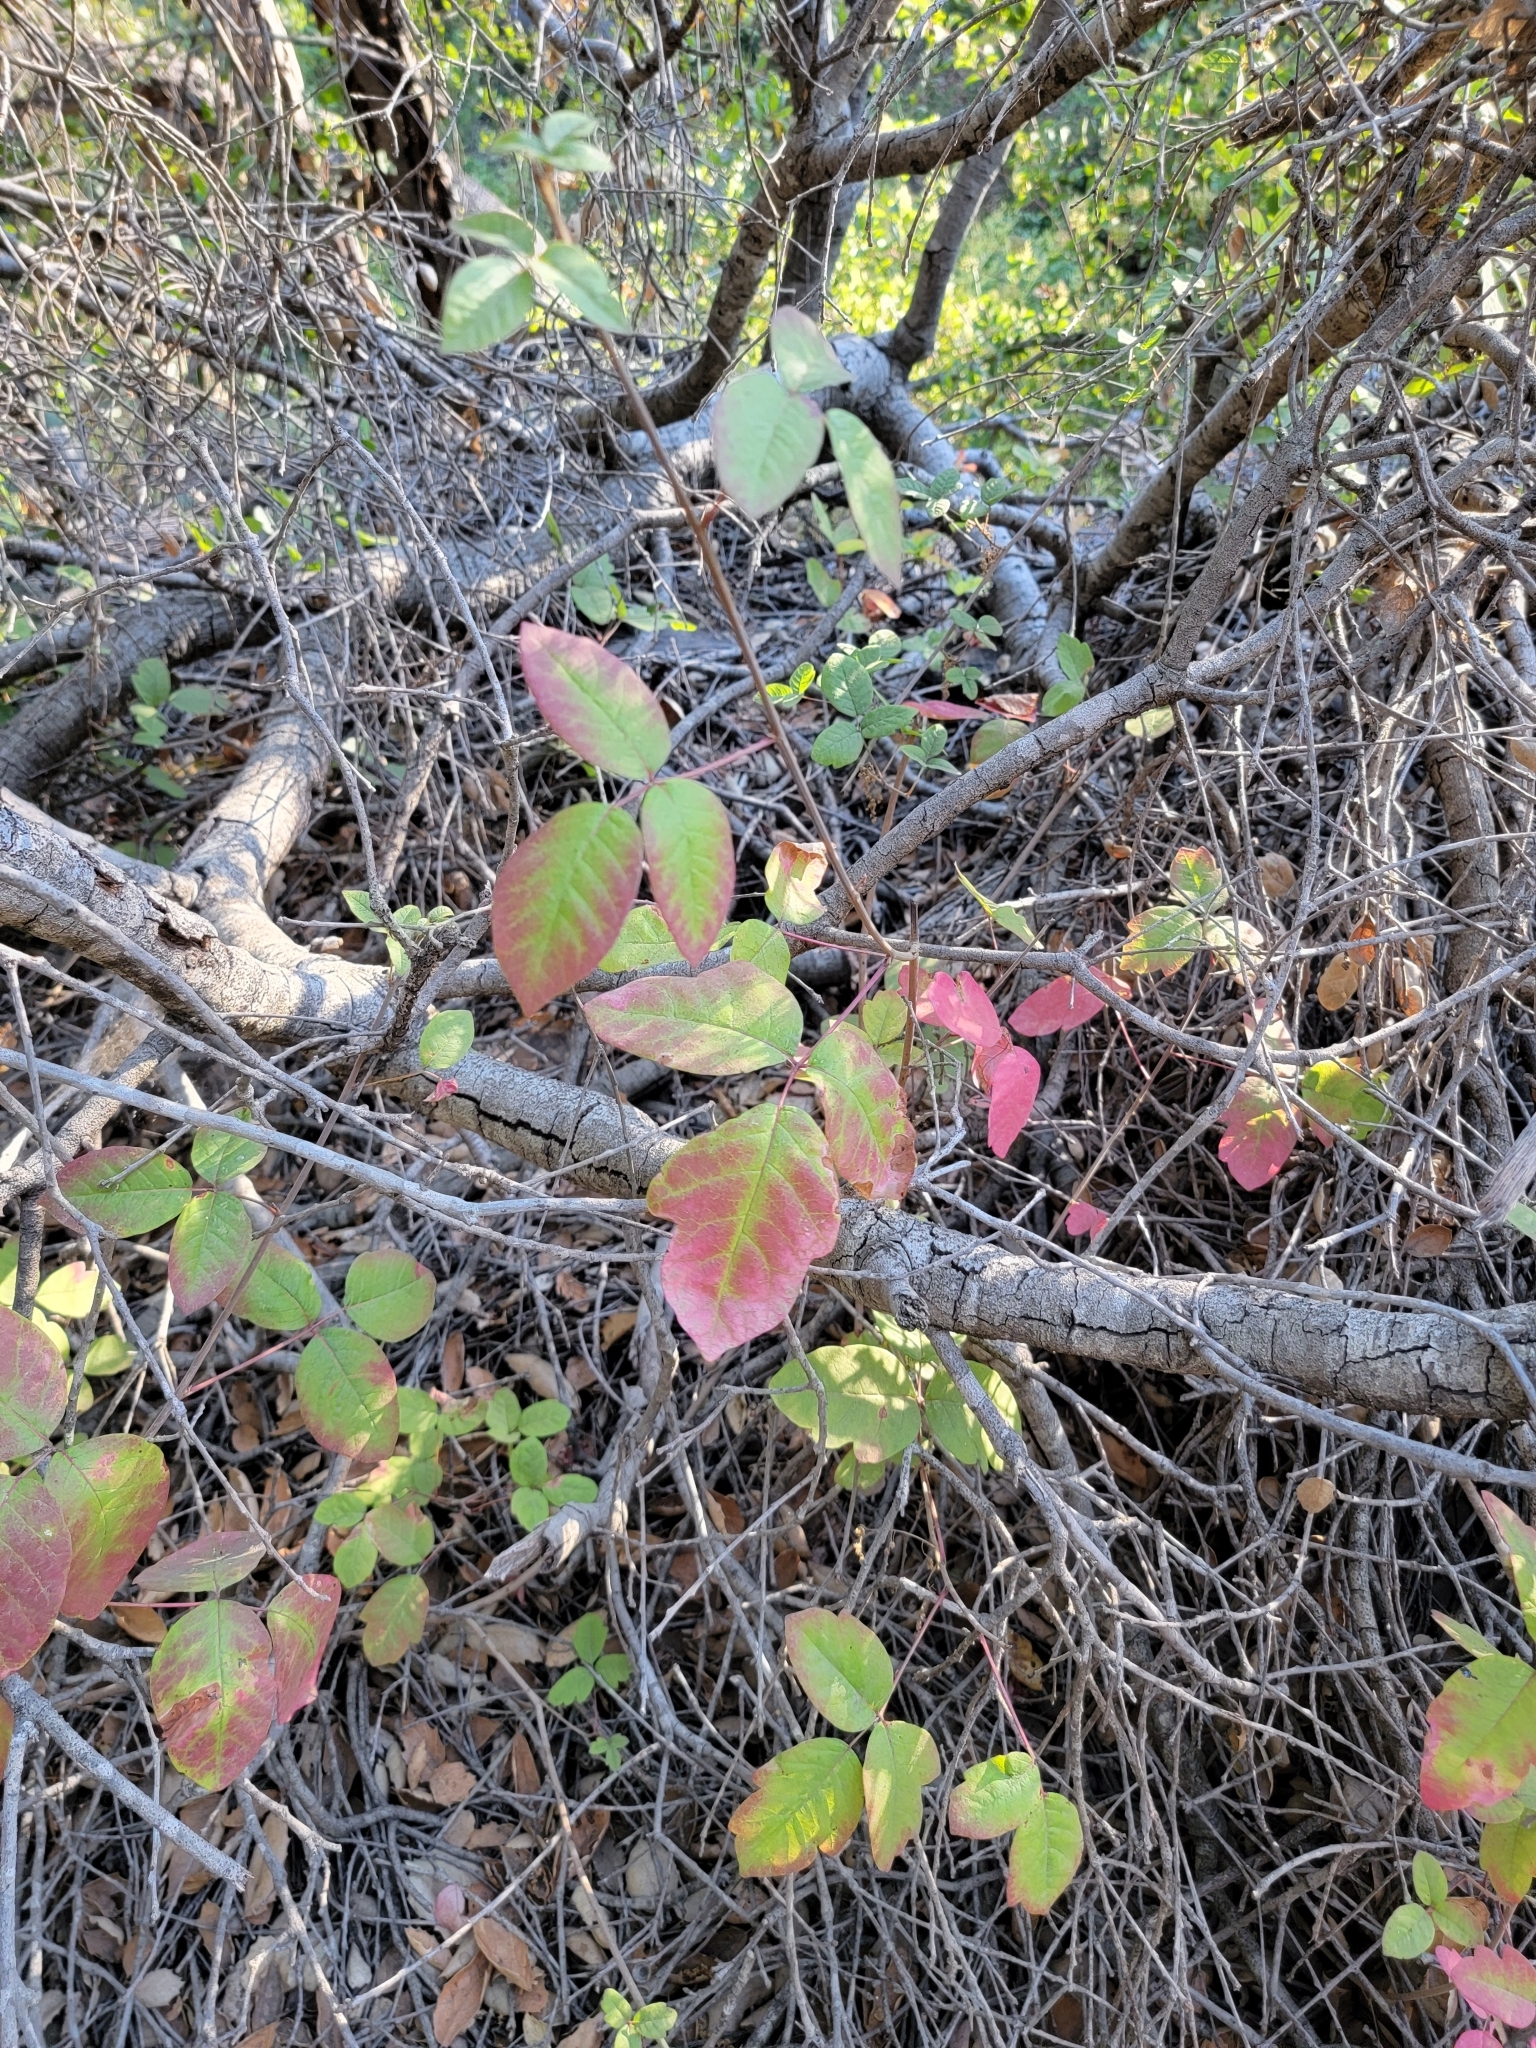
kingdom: Plantae
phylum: Tracheophyta
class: Magnoliopsida
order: Sapindales
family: Anacardiaceae
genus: Toxicodendron
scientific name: Toxicodendron diversilobum
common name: Pacific poison-oak
